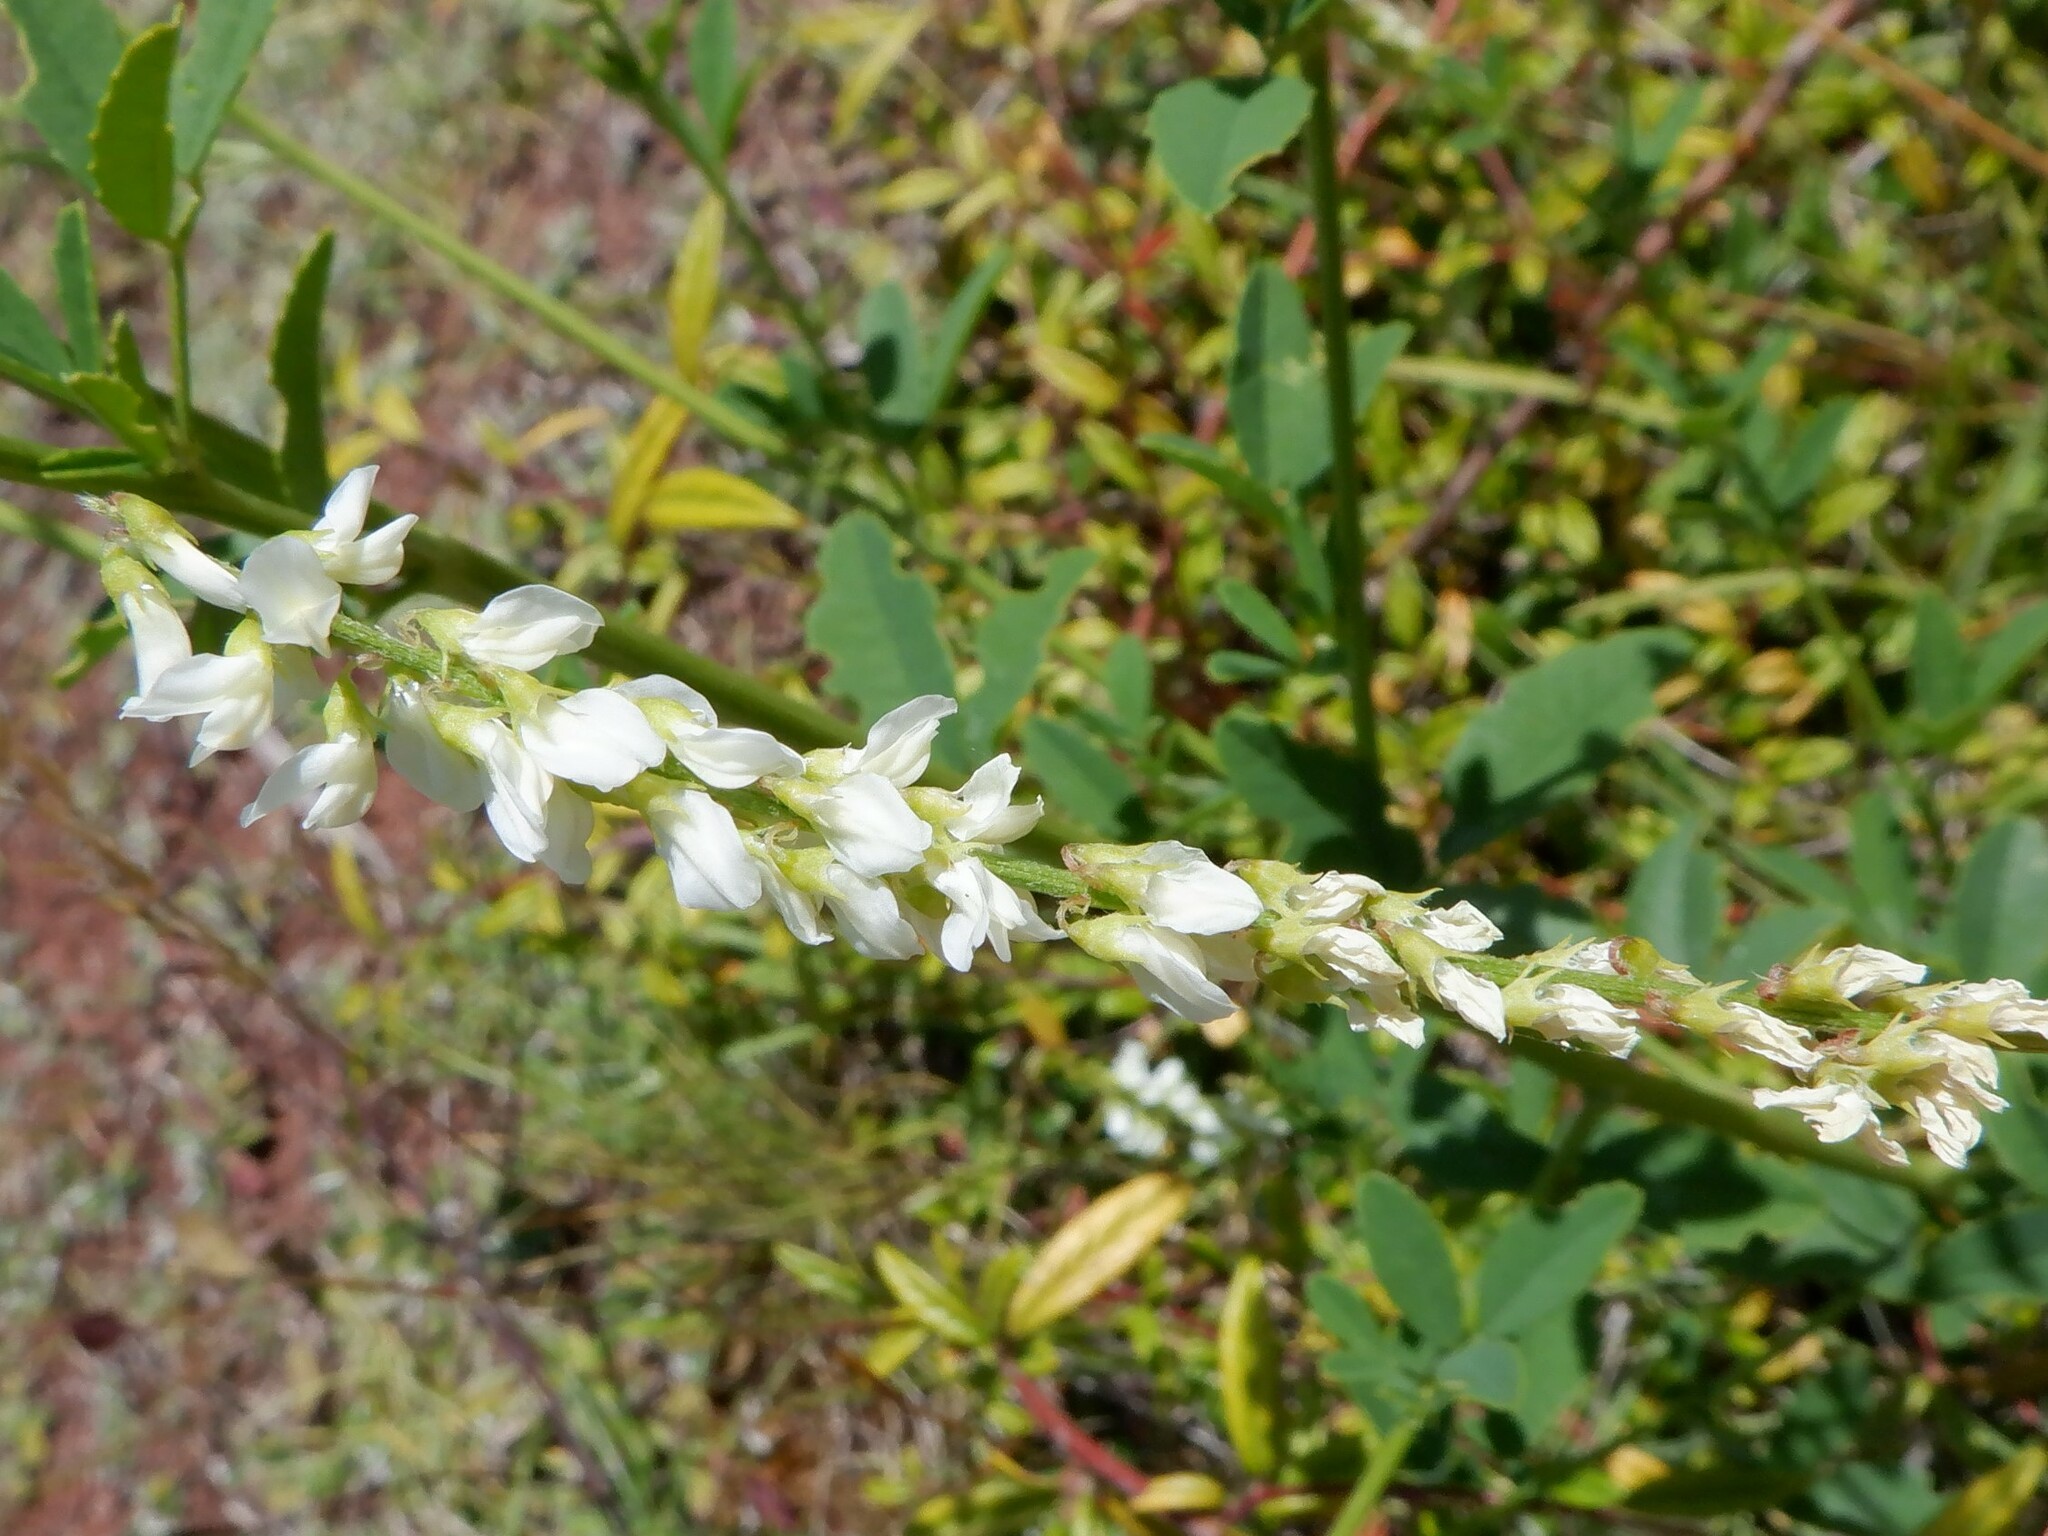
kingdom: Plantae
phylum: Tracheophyta
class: Magnoliopsida
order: Fabales
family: Fabaceae
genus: Melilotus
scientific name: Melilotus albus
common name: White melilot
